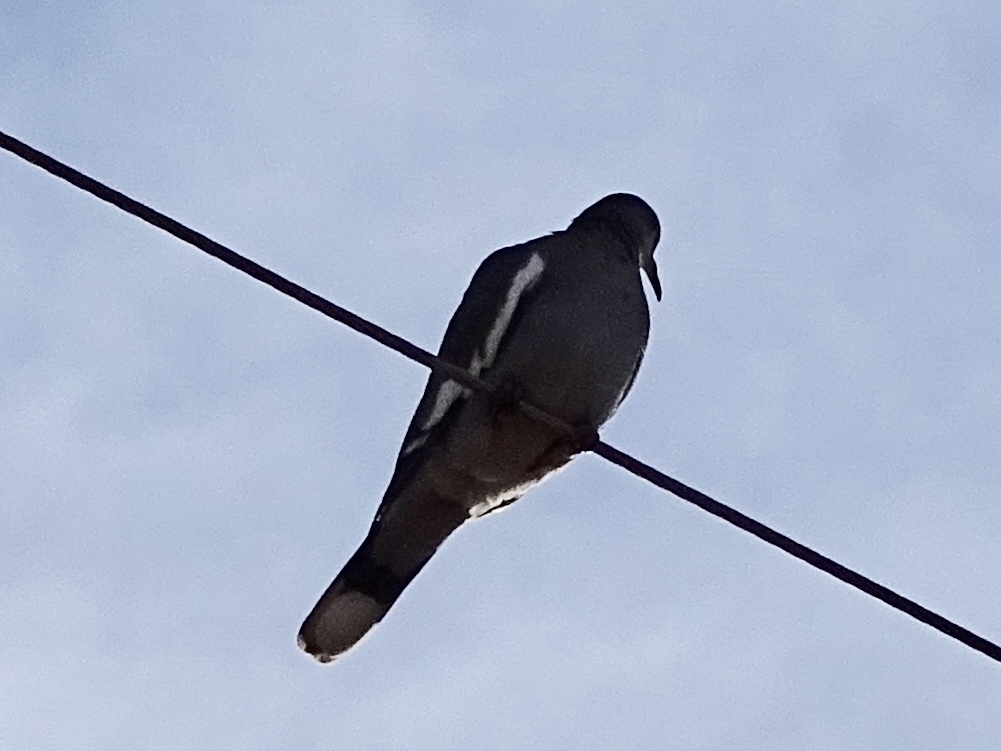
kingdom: Animalia
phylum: Chordata
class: Aves
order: Columbiformes
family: Columbidae
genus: Zenaida
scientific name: Zenaida asiatica
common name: White-winged dove
